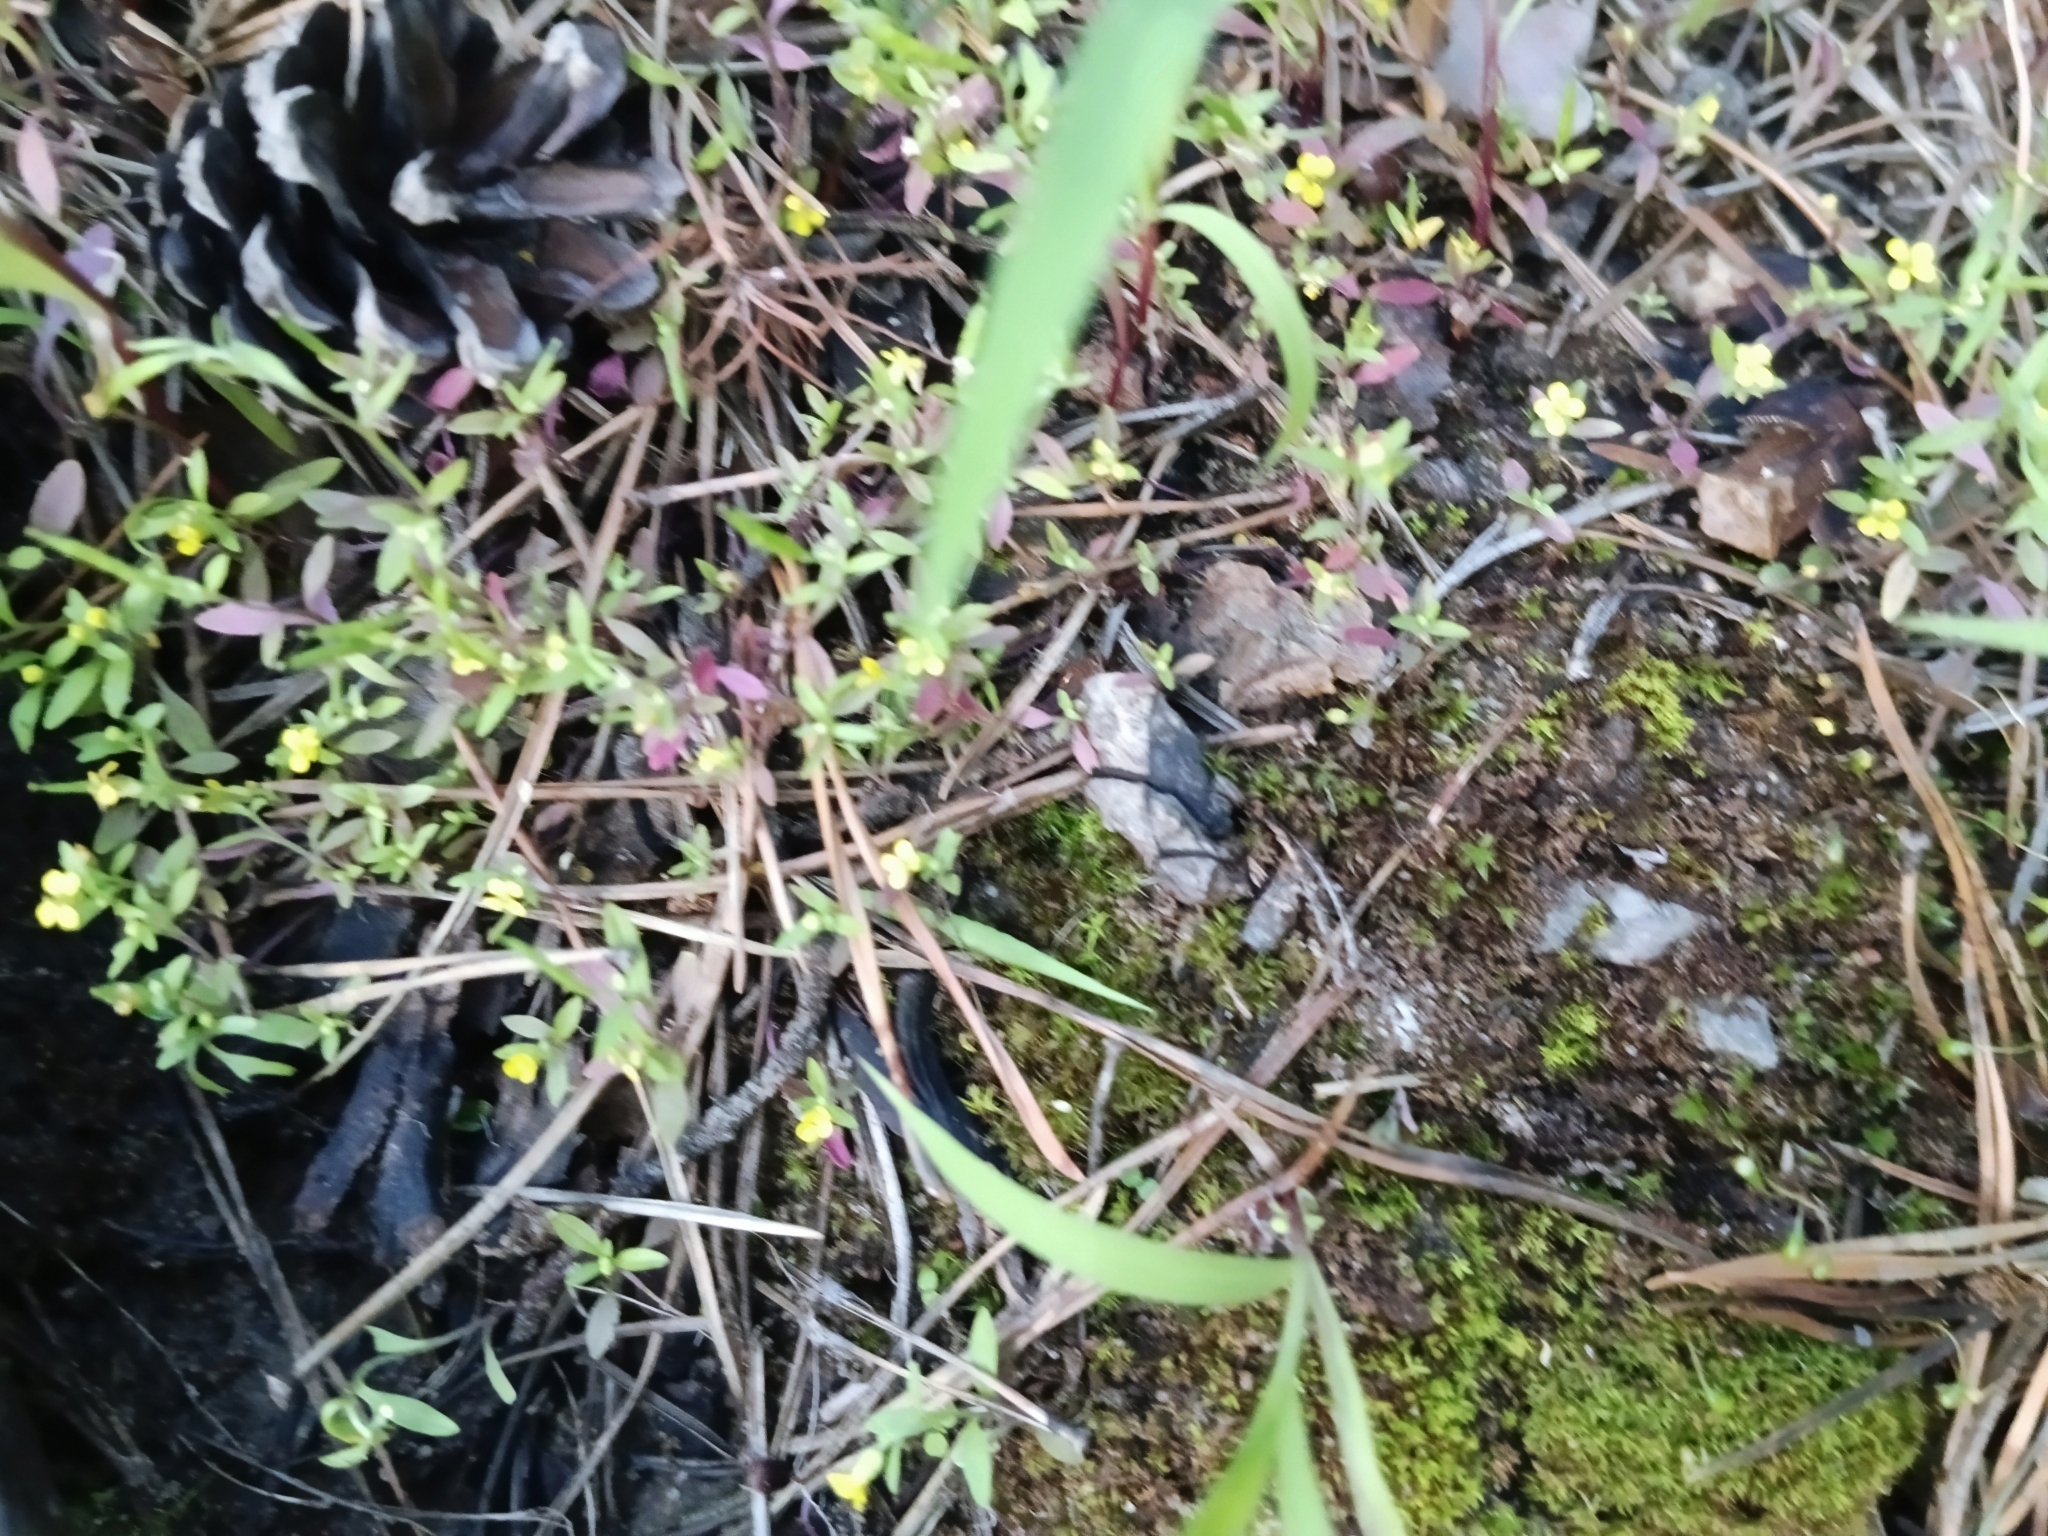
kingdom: Plantae
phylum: Tracheophyta
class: Magnoliopsida
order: Brassicales
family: Brassicaceae
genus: Erysimum
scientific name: Erysimum cheiranthoides
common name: Treacle mustard
